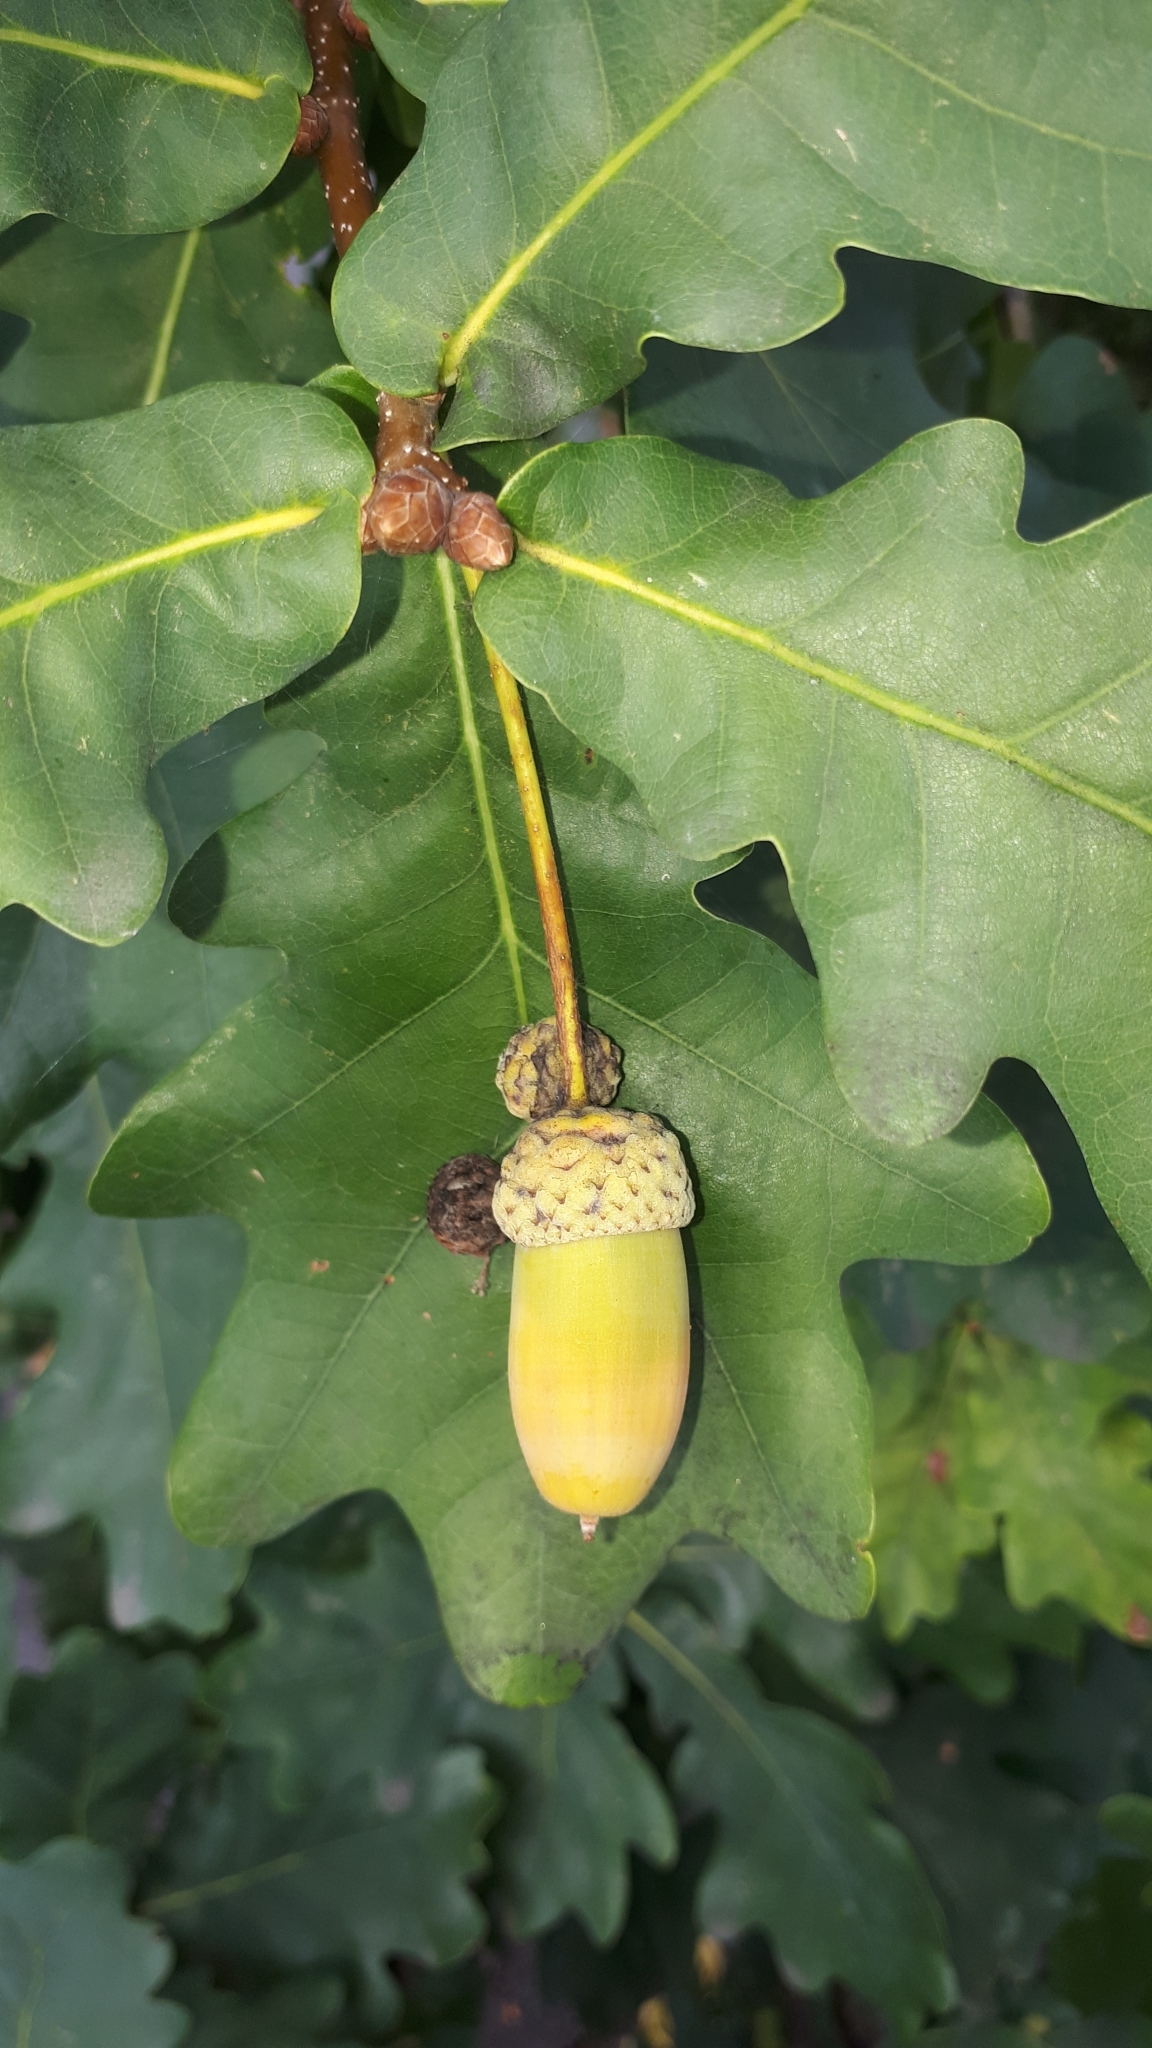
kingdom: Plantae
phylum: Tracheophyta
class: Magnoliopsida
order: Fagales
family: Fagaceae
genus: Quercus
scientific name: Quercus robur
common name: Pedunculate oak
